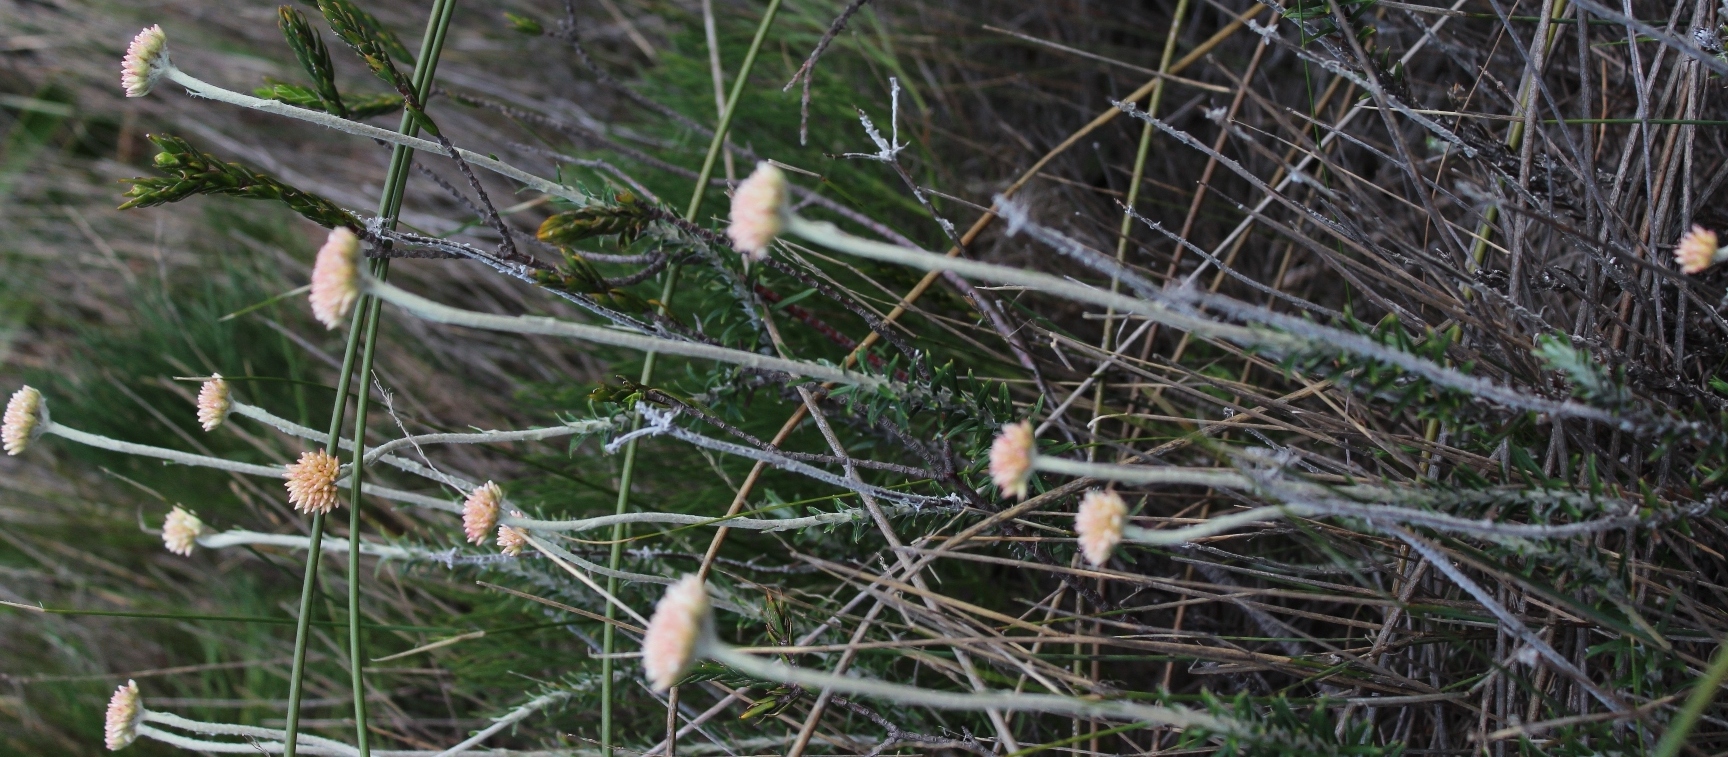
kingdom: Plantae
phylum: Tracheophyta
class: Magnoliopsida
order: Asterales
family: Asteraceae
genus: Anaxeton
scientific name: Anaxeton arborescens
